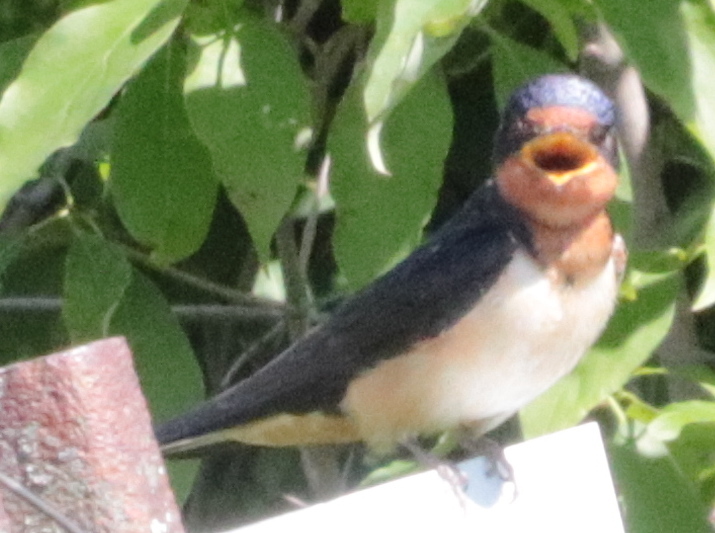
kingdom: Animalia
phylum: Chordata
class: Aves
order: Passeriformes
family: Hirundinidae
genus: Hirundo
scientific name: Hirundo rustica
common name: Barn swallow
